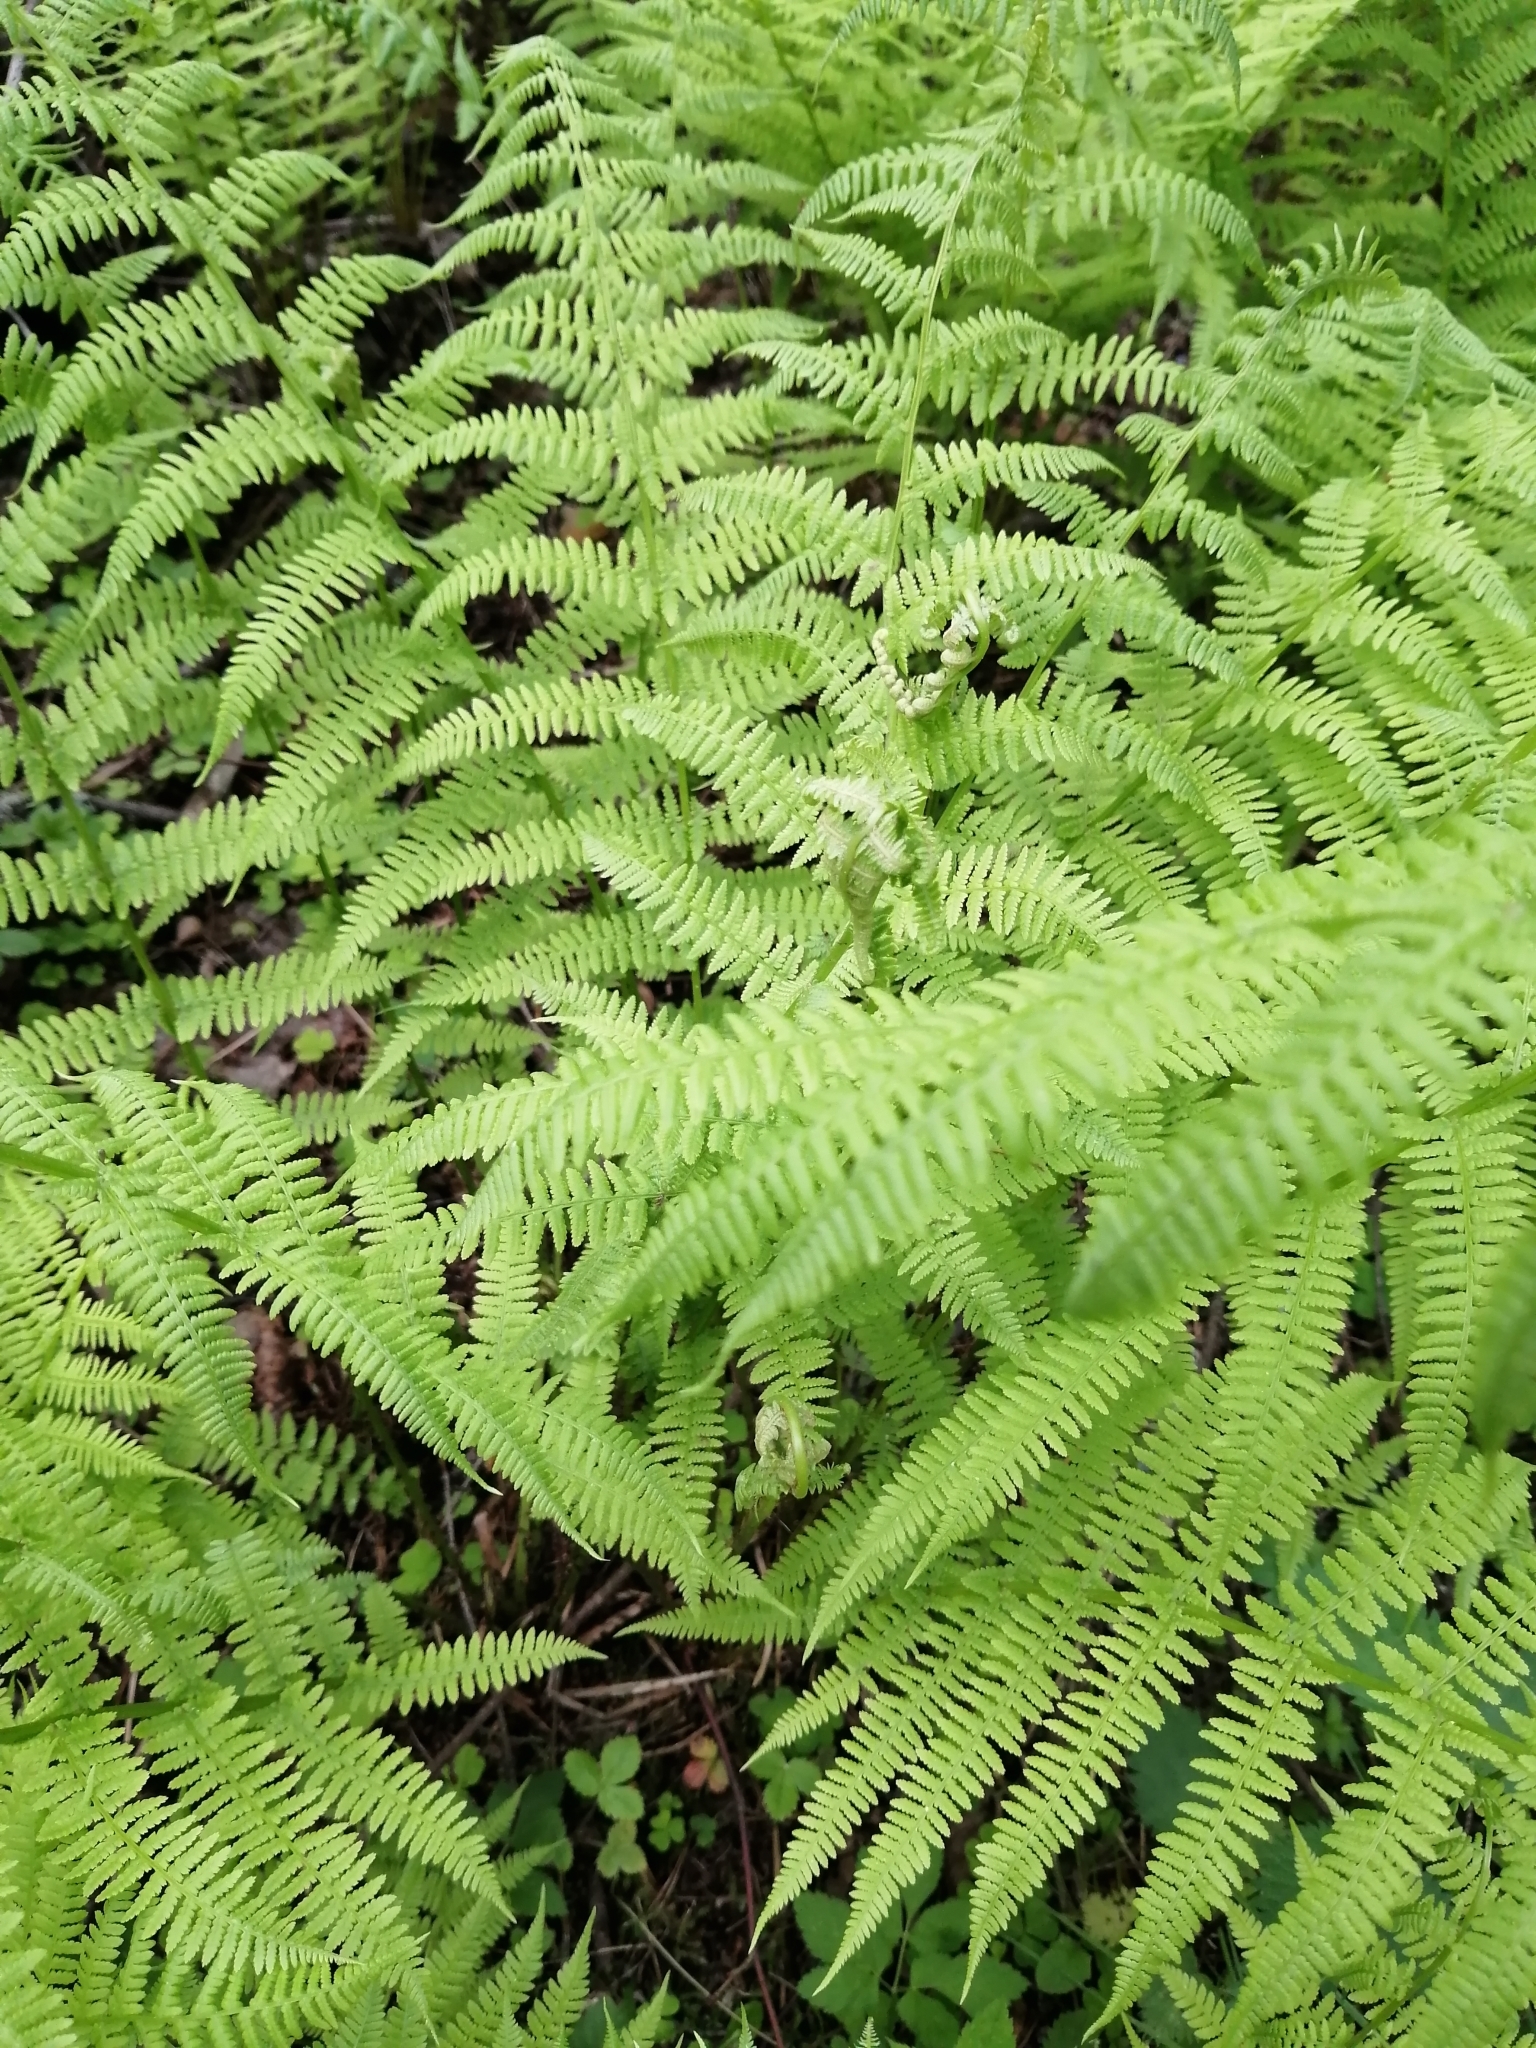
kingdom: Plantae
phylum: Tracheophyta
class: Polypodiopsida
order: Polypodiales
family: Athyriaceae
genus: Athyrium
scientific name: Athyrium filix-femina
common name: Lady fern
